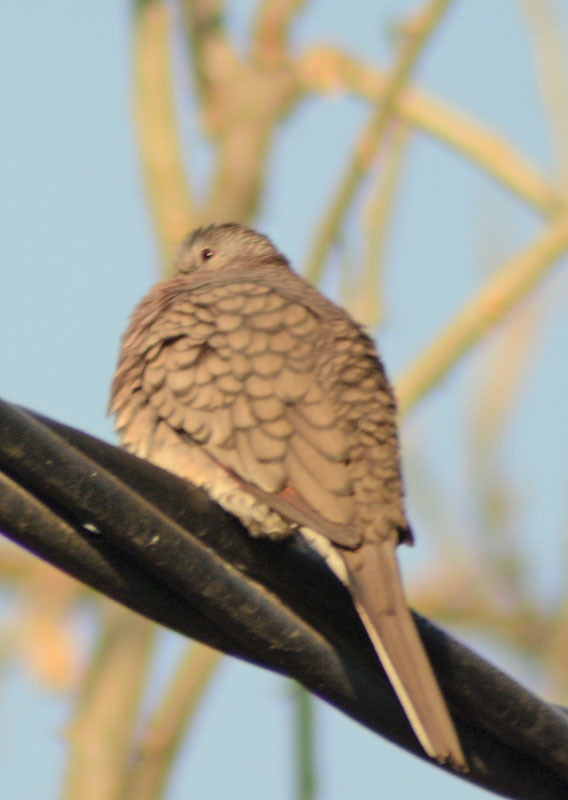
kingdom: Animalia
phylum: Chordata
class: Aves
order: Columbiformes
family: Columbidae
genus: Columbina
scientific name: Columbina inca
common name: Inca dove
